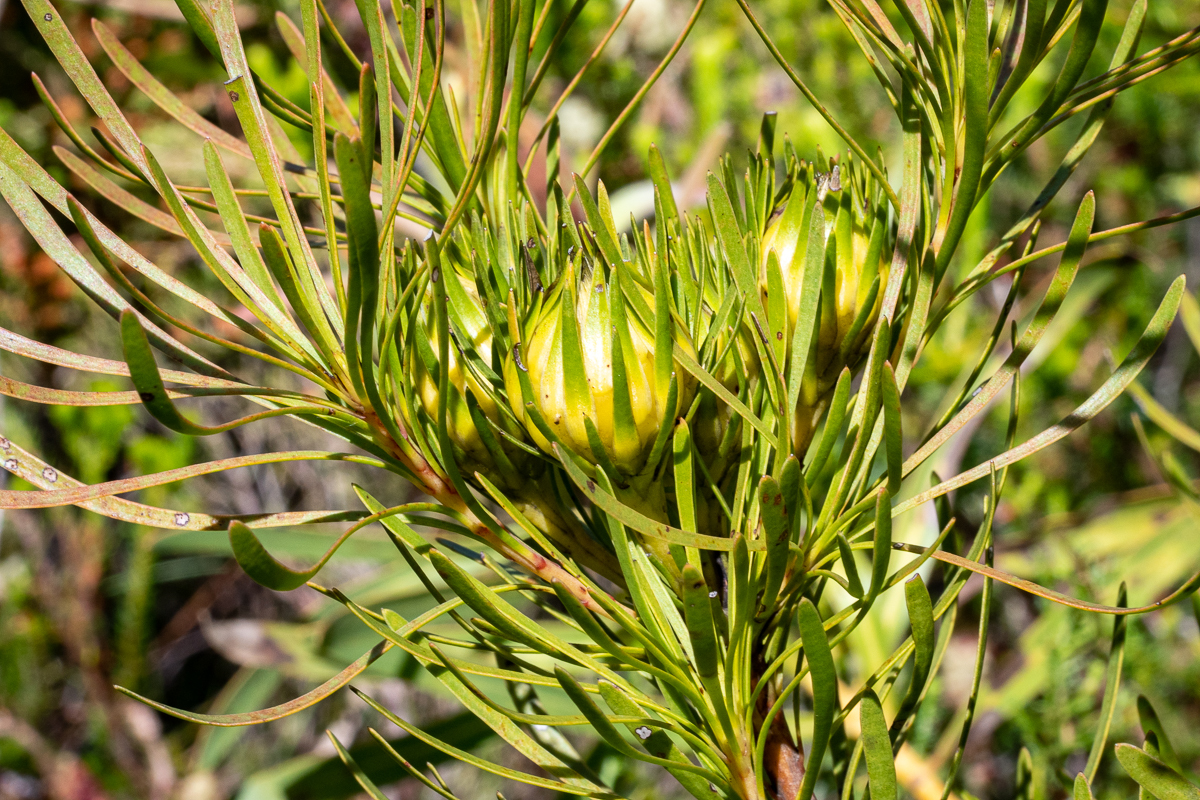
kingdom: Plantae
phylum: Tracheophyta
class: Magnoliopsida
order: Proteales
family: Proteaceae
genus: Aulax
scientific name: Aulax
